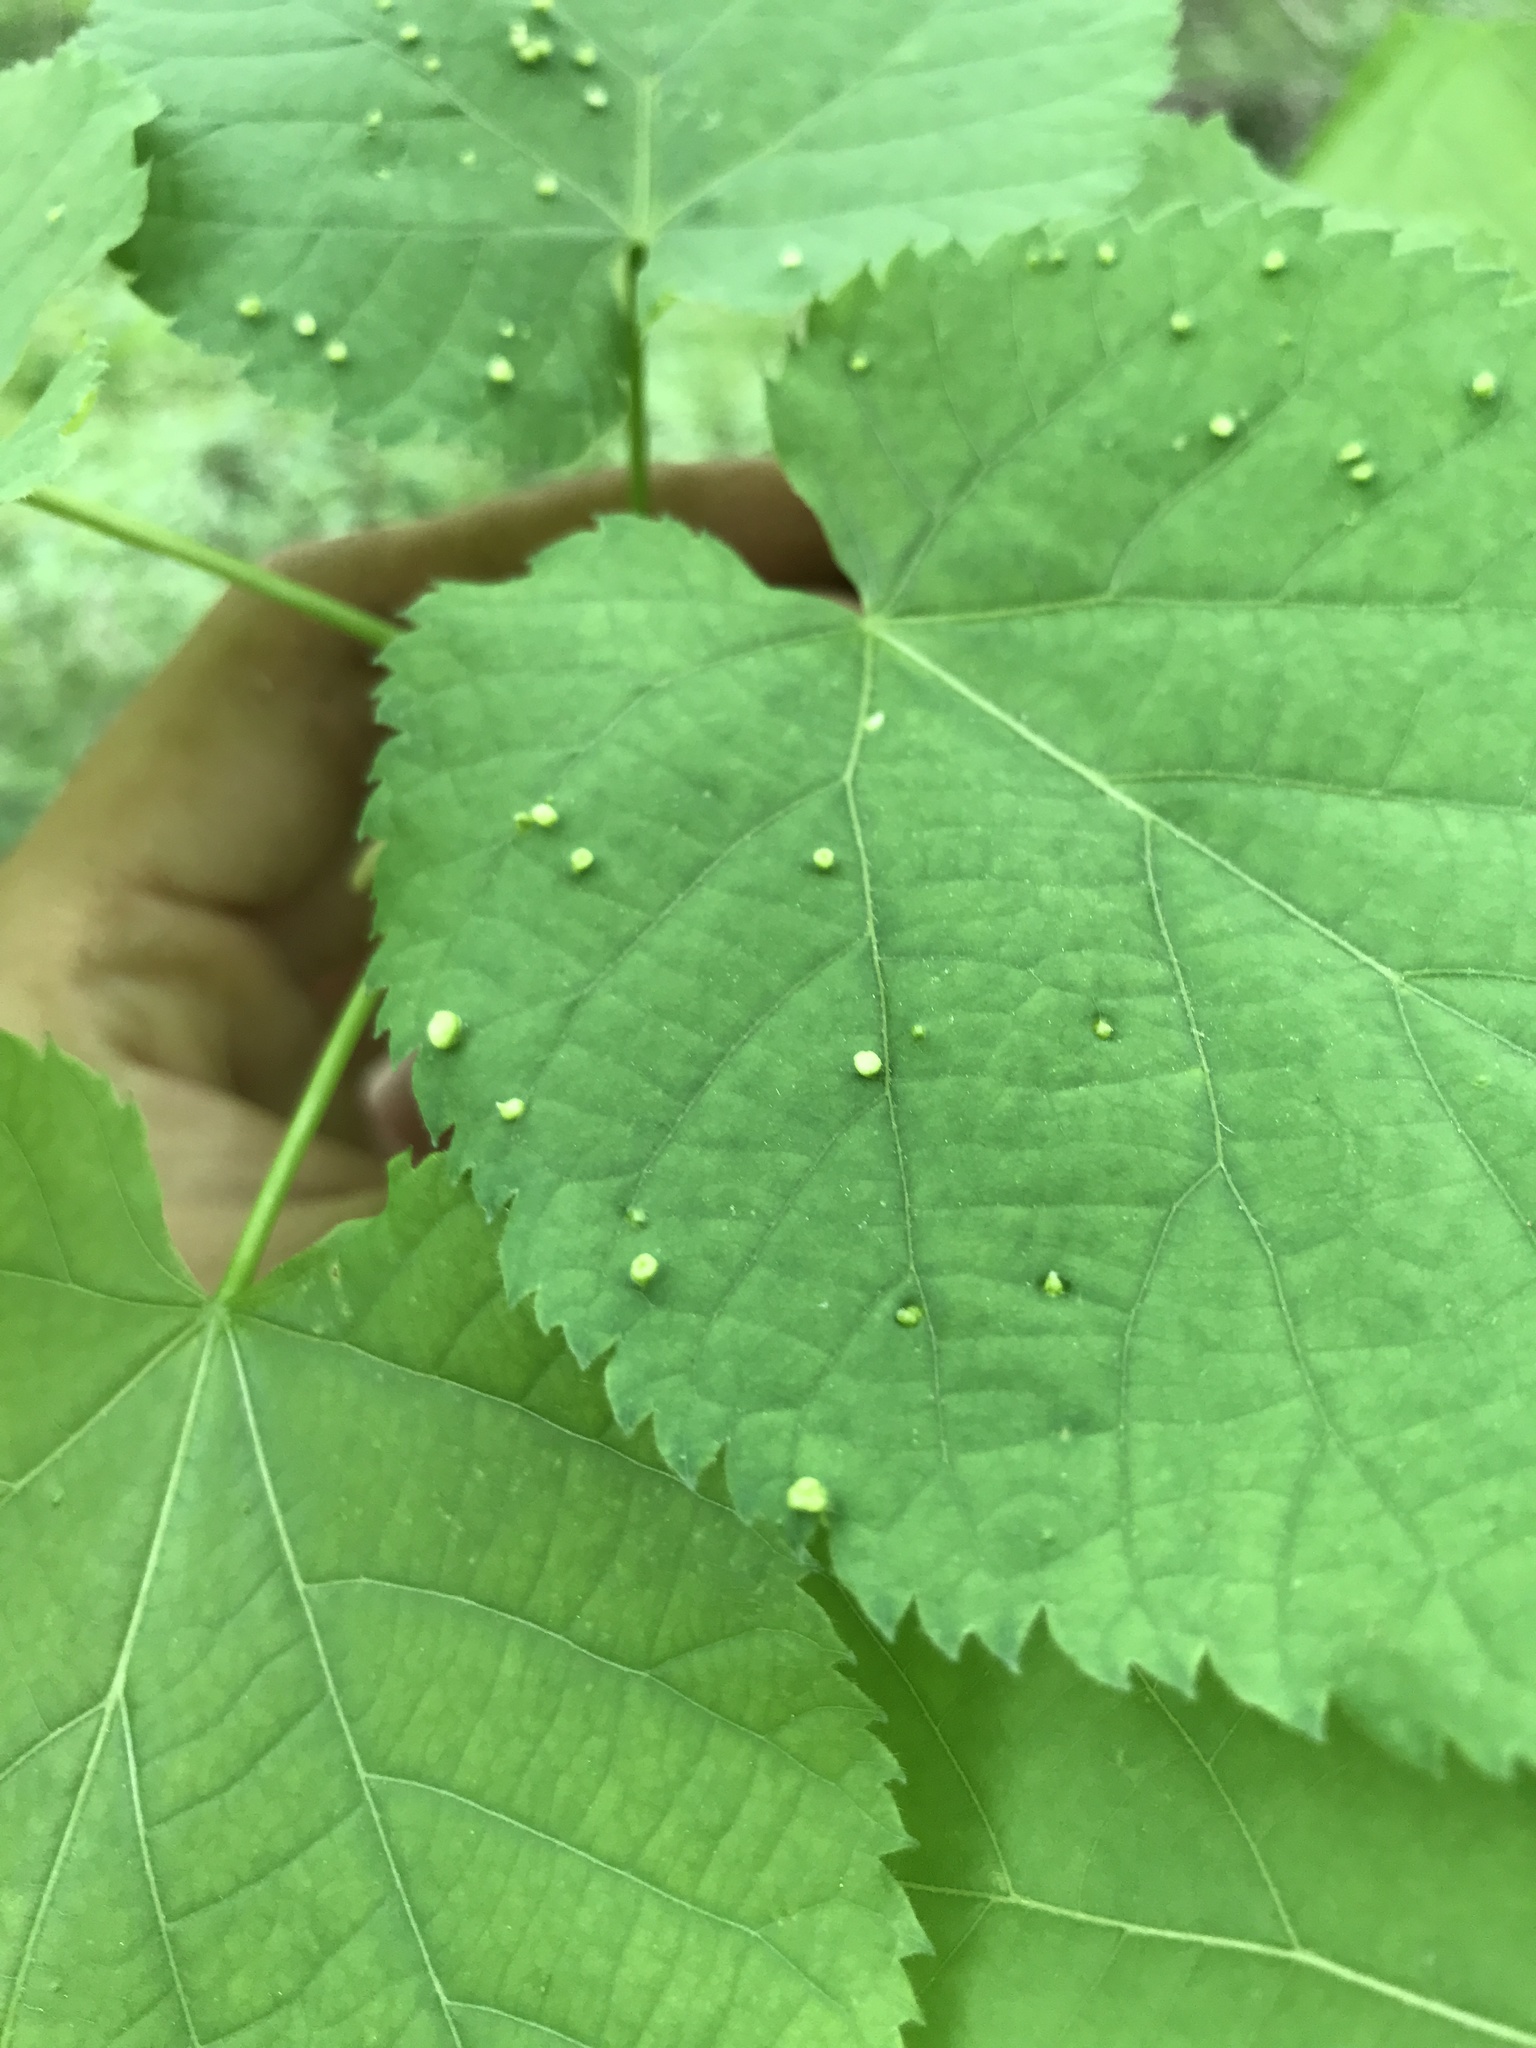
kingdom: Animalia
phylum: Arthropoda
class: Arachnida
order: Trombidiformes
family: Eriophyidae
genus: Eriophyes
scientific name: Eriophyes tiliae
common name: Red nail gall mite
